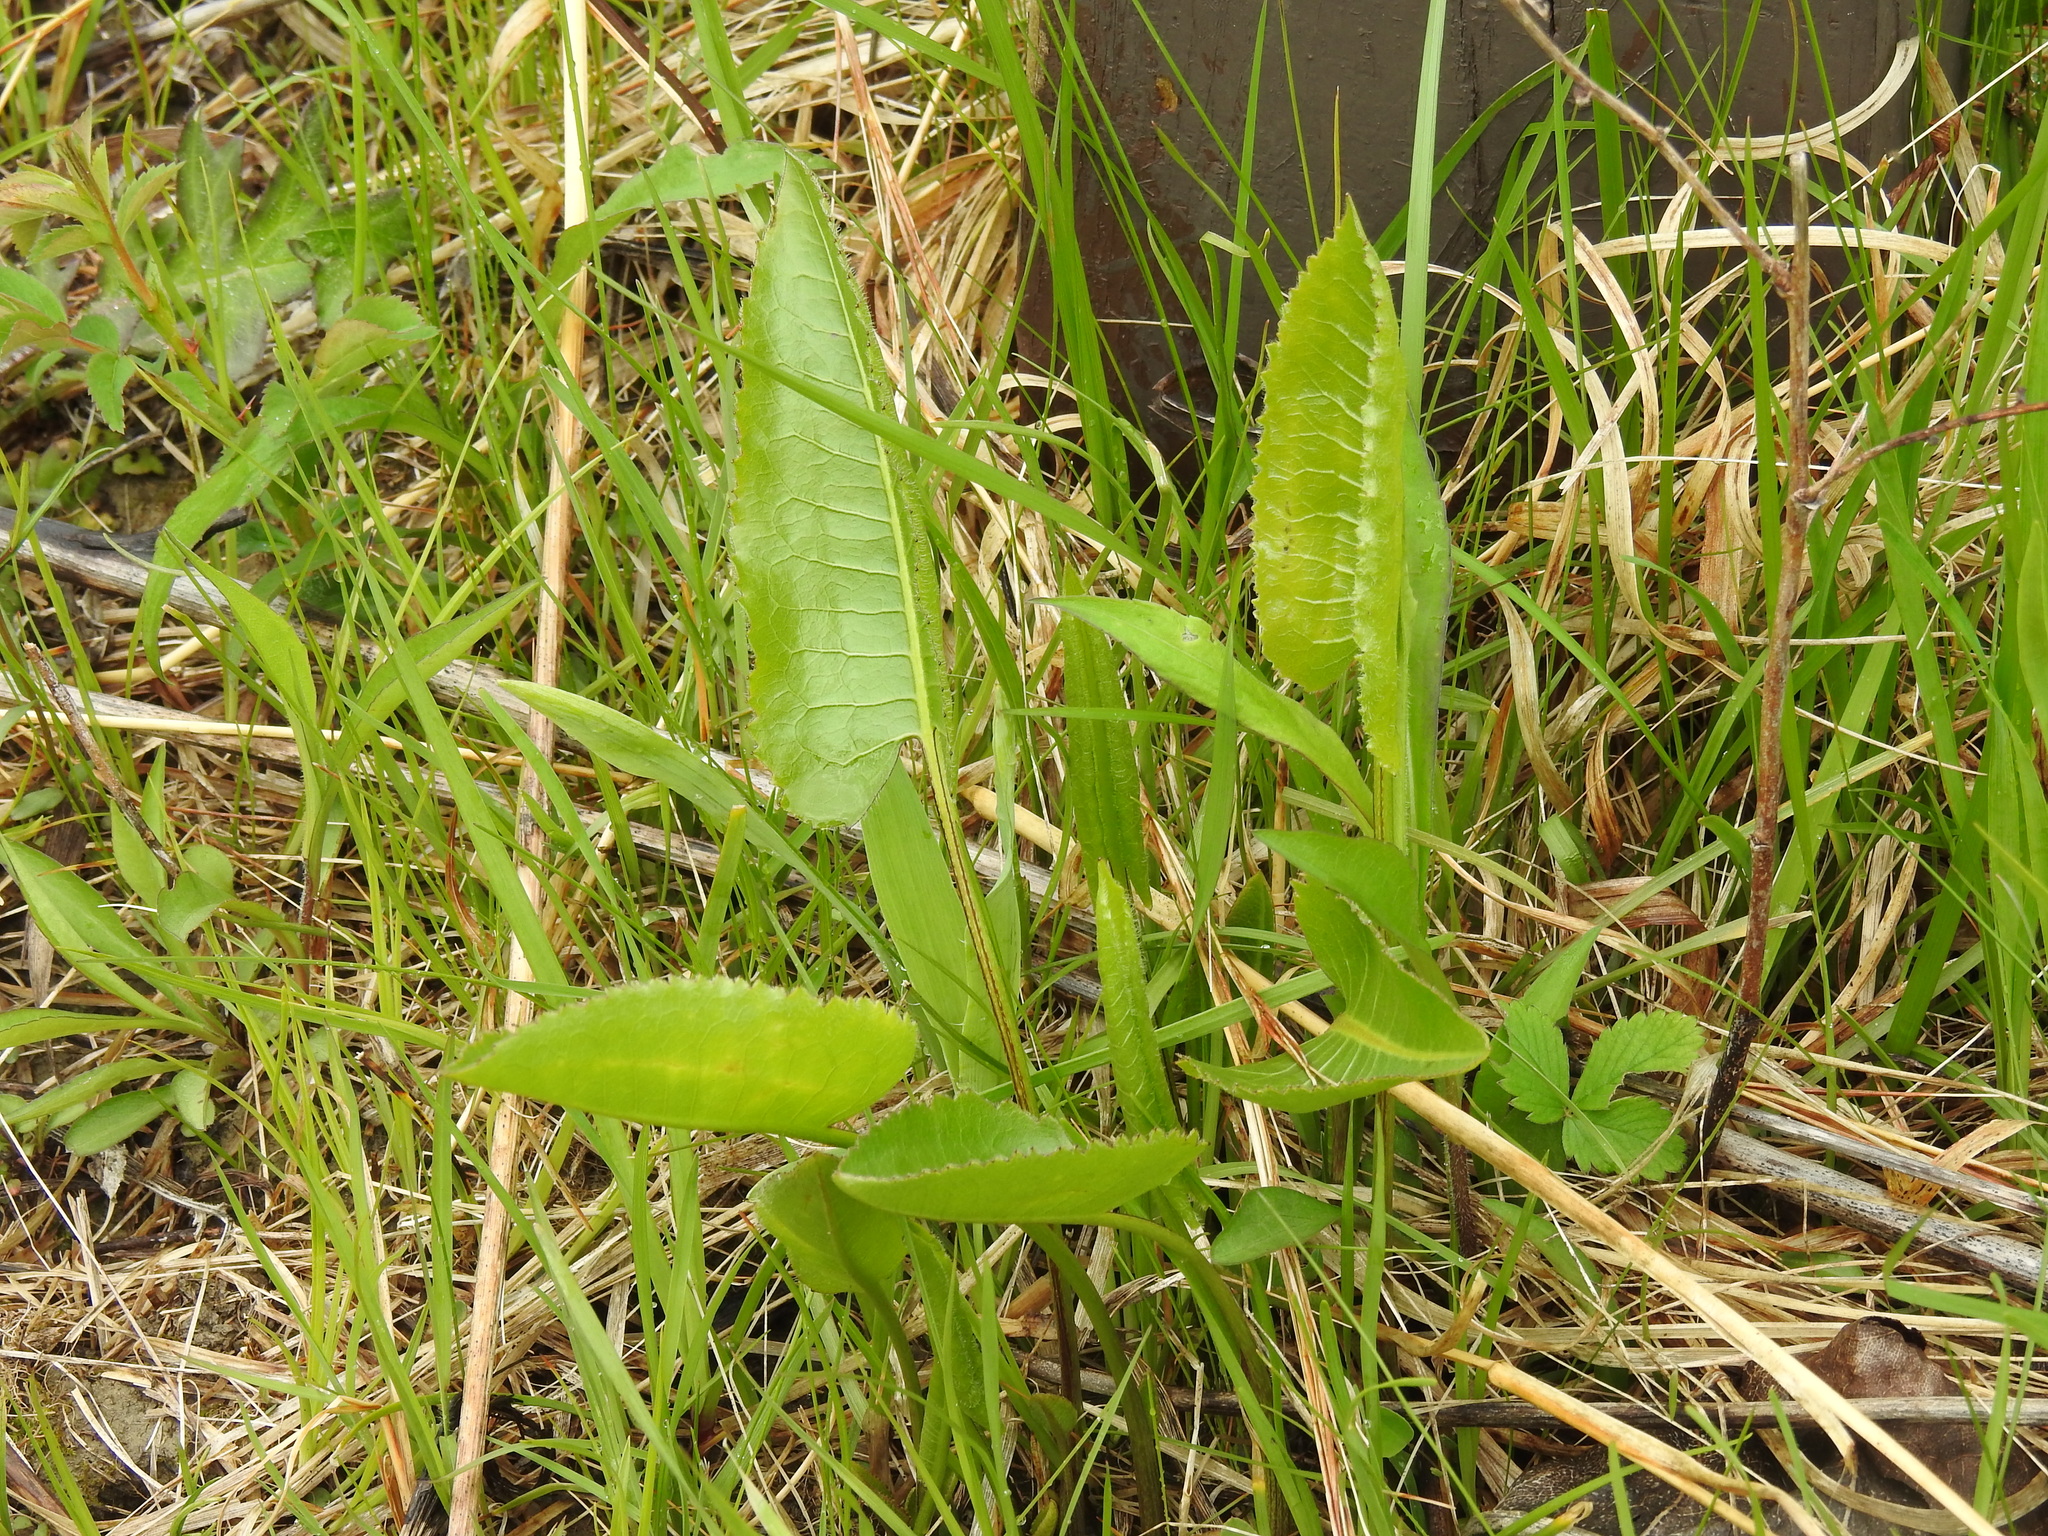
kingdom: Plantae
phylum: Tracheophyta
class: Magnoliopsida
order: Asterales
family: Asteraceae
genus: Silphium
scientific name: Silphium terebinthinaceum
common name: Basal-leaf rosinweed
